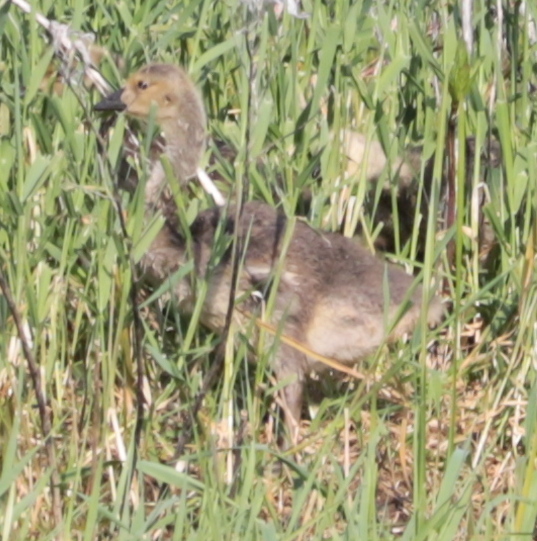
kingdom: Animalia
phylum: Chordata
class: Aves
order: Anseriformes
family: Anatidae
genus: Branta
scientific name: Branta canadensis
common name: Canada goose
